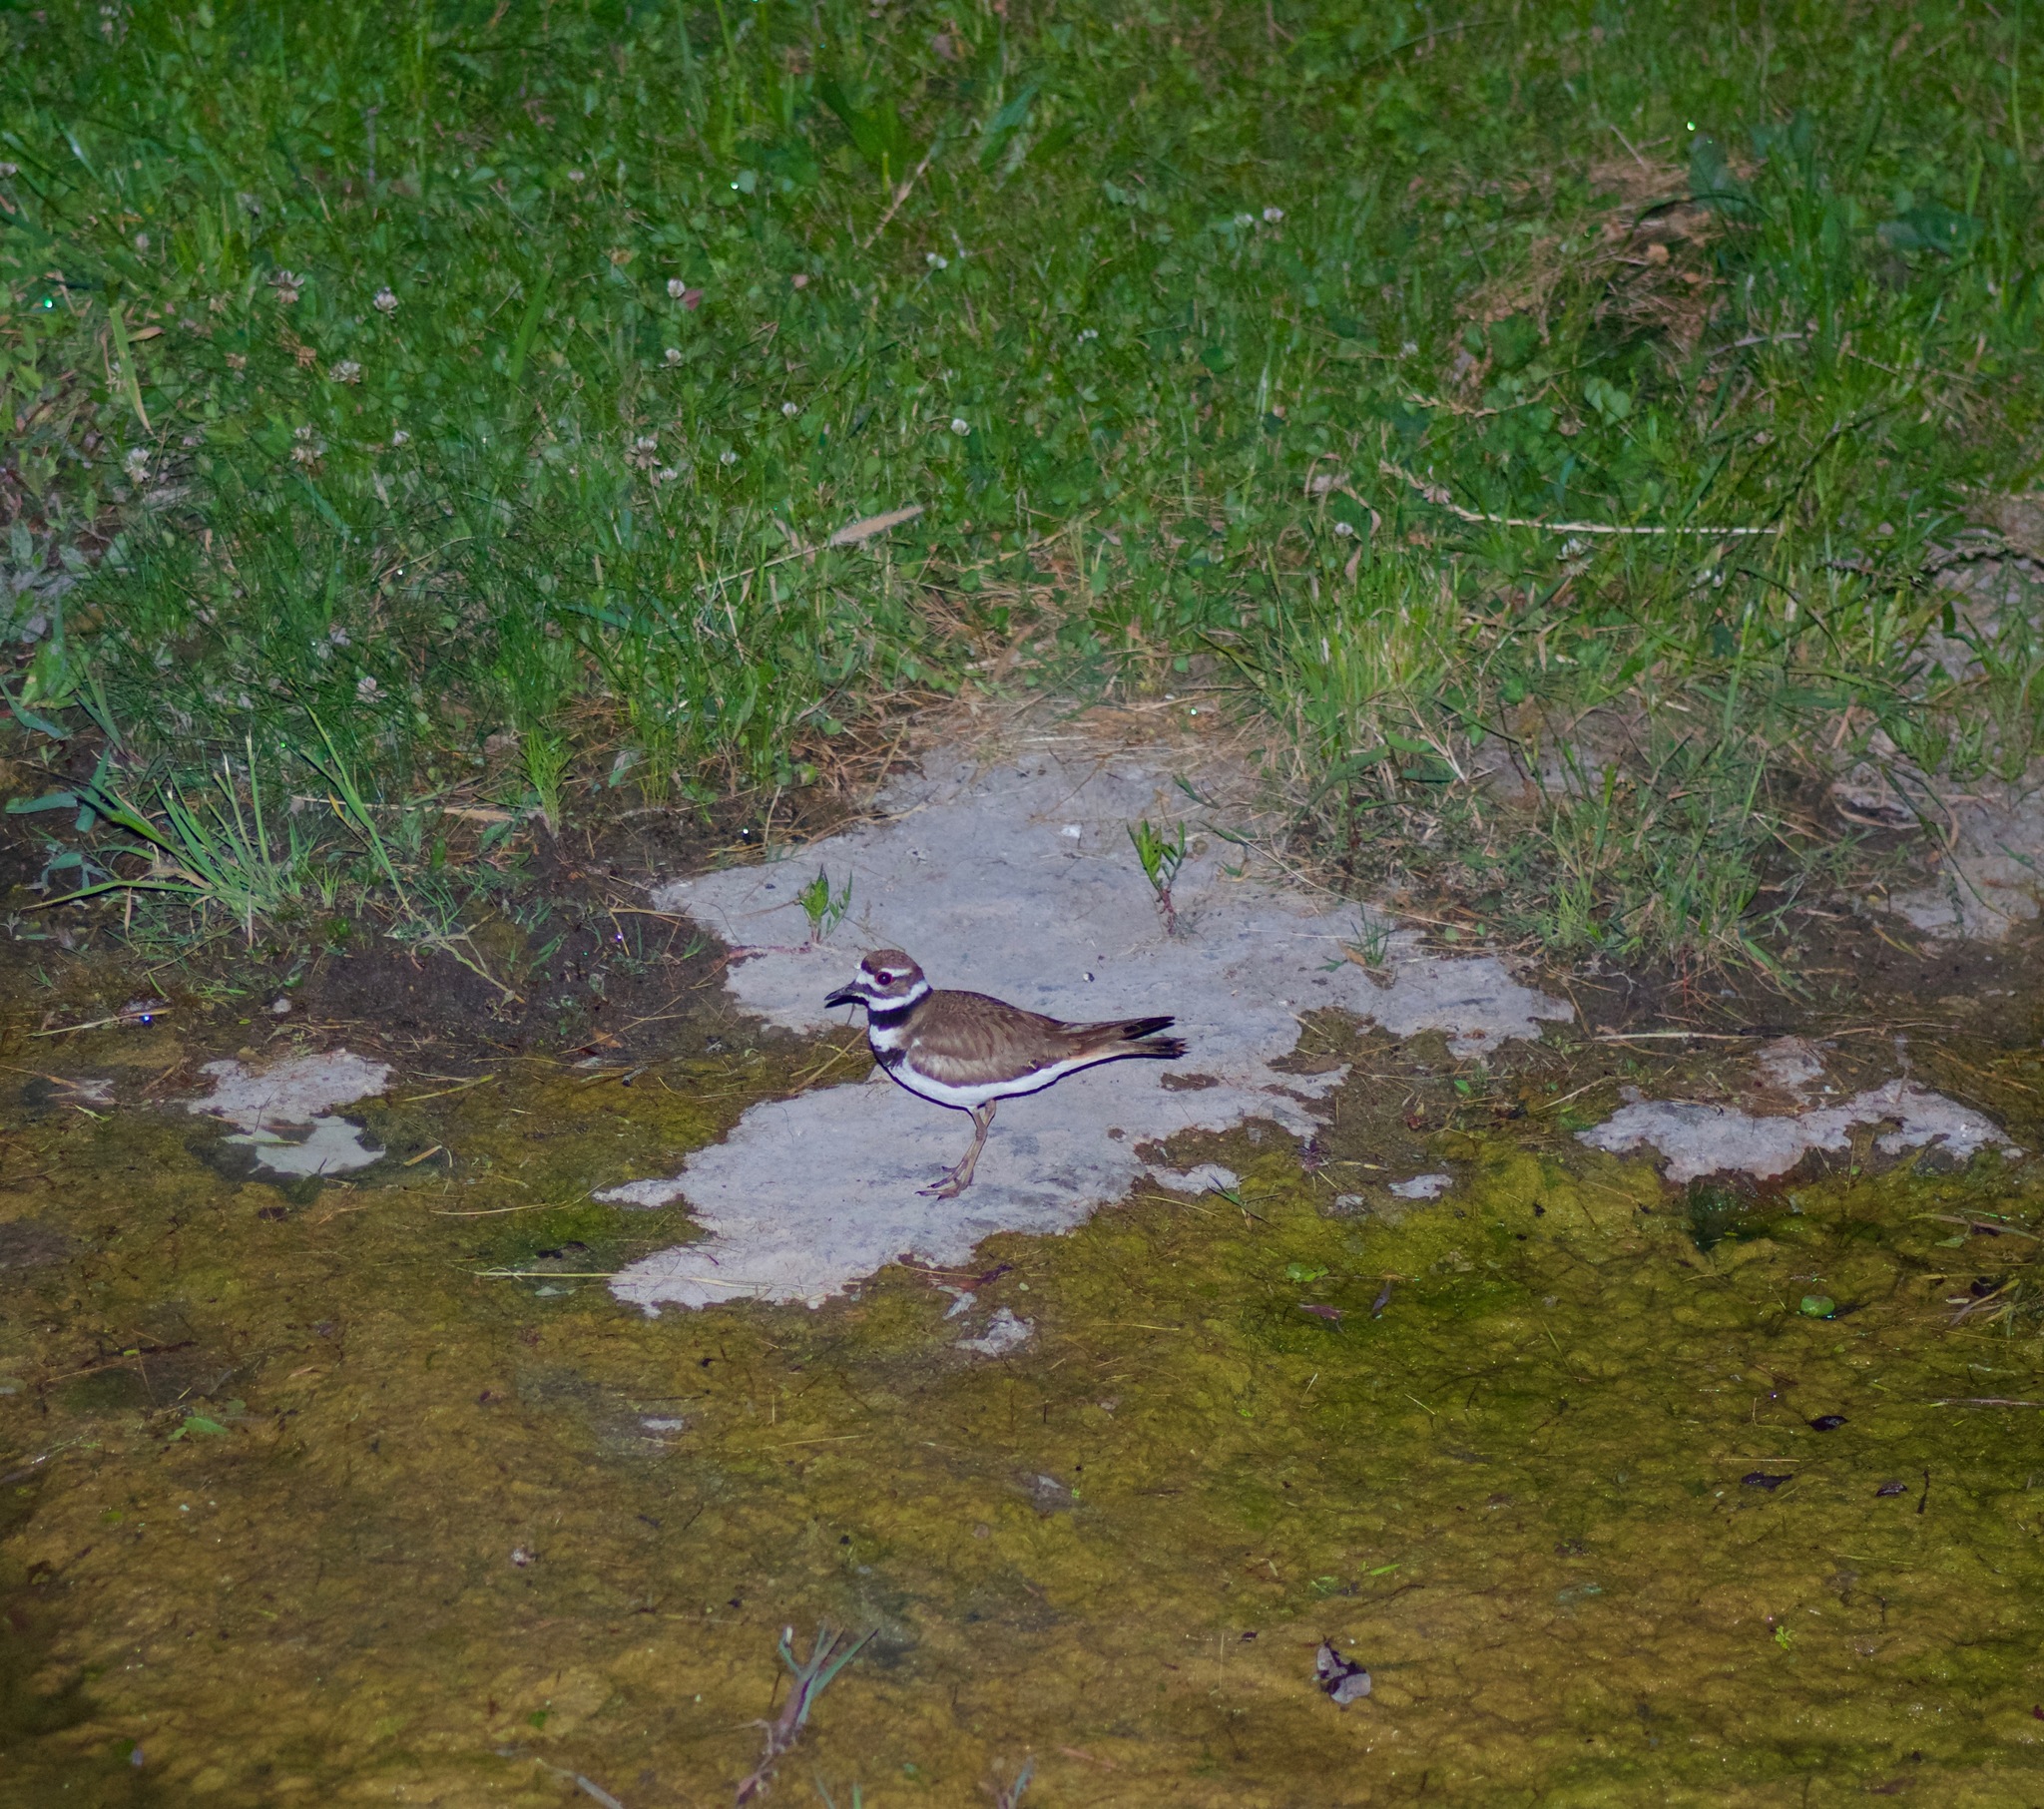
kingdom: Animalia
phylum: Chordata
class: Aves
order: Charadriiformes
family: Charadriidae
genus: Charadrius
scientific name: Charadrius vociferus
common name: Killdeer
